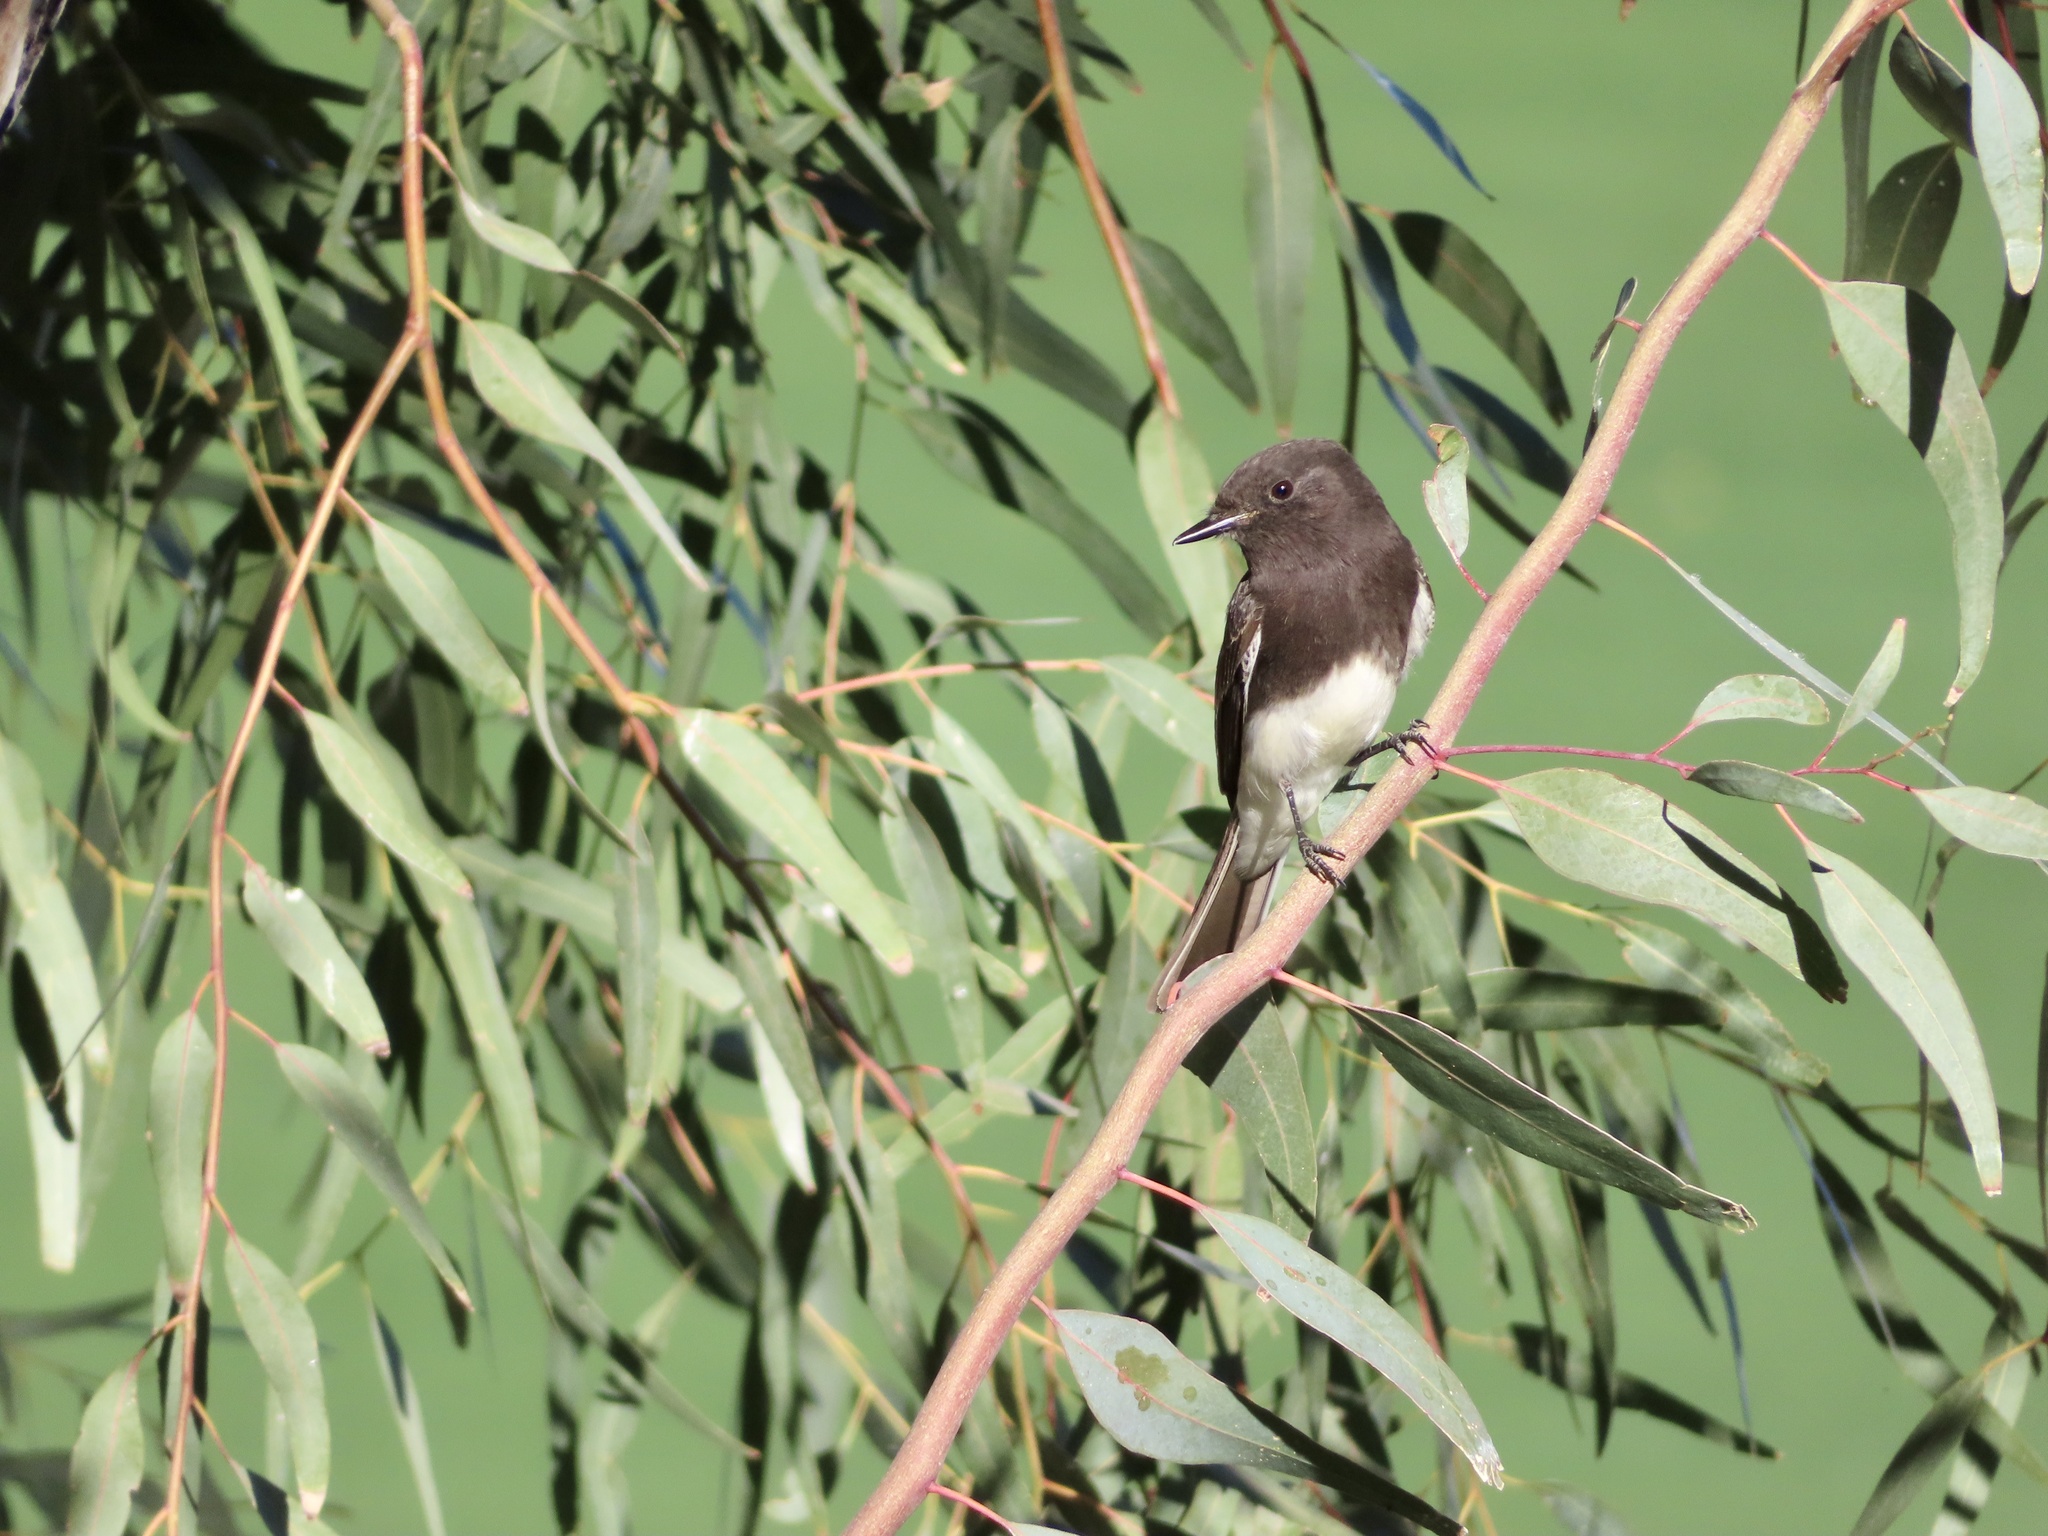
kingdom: Animalia
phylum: Chordata
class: Aves
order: Passeriformes
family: Tyrannidae
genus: Sayornis
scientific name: Sayornis nigricans
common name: Black phoebe
